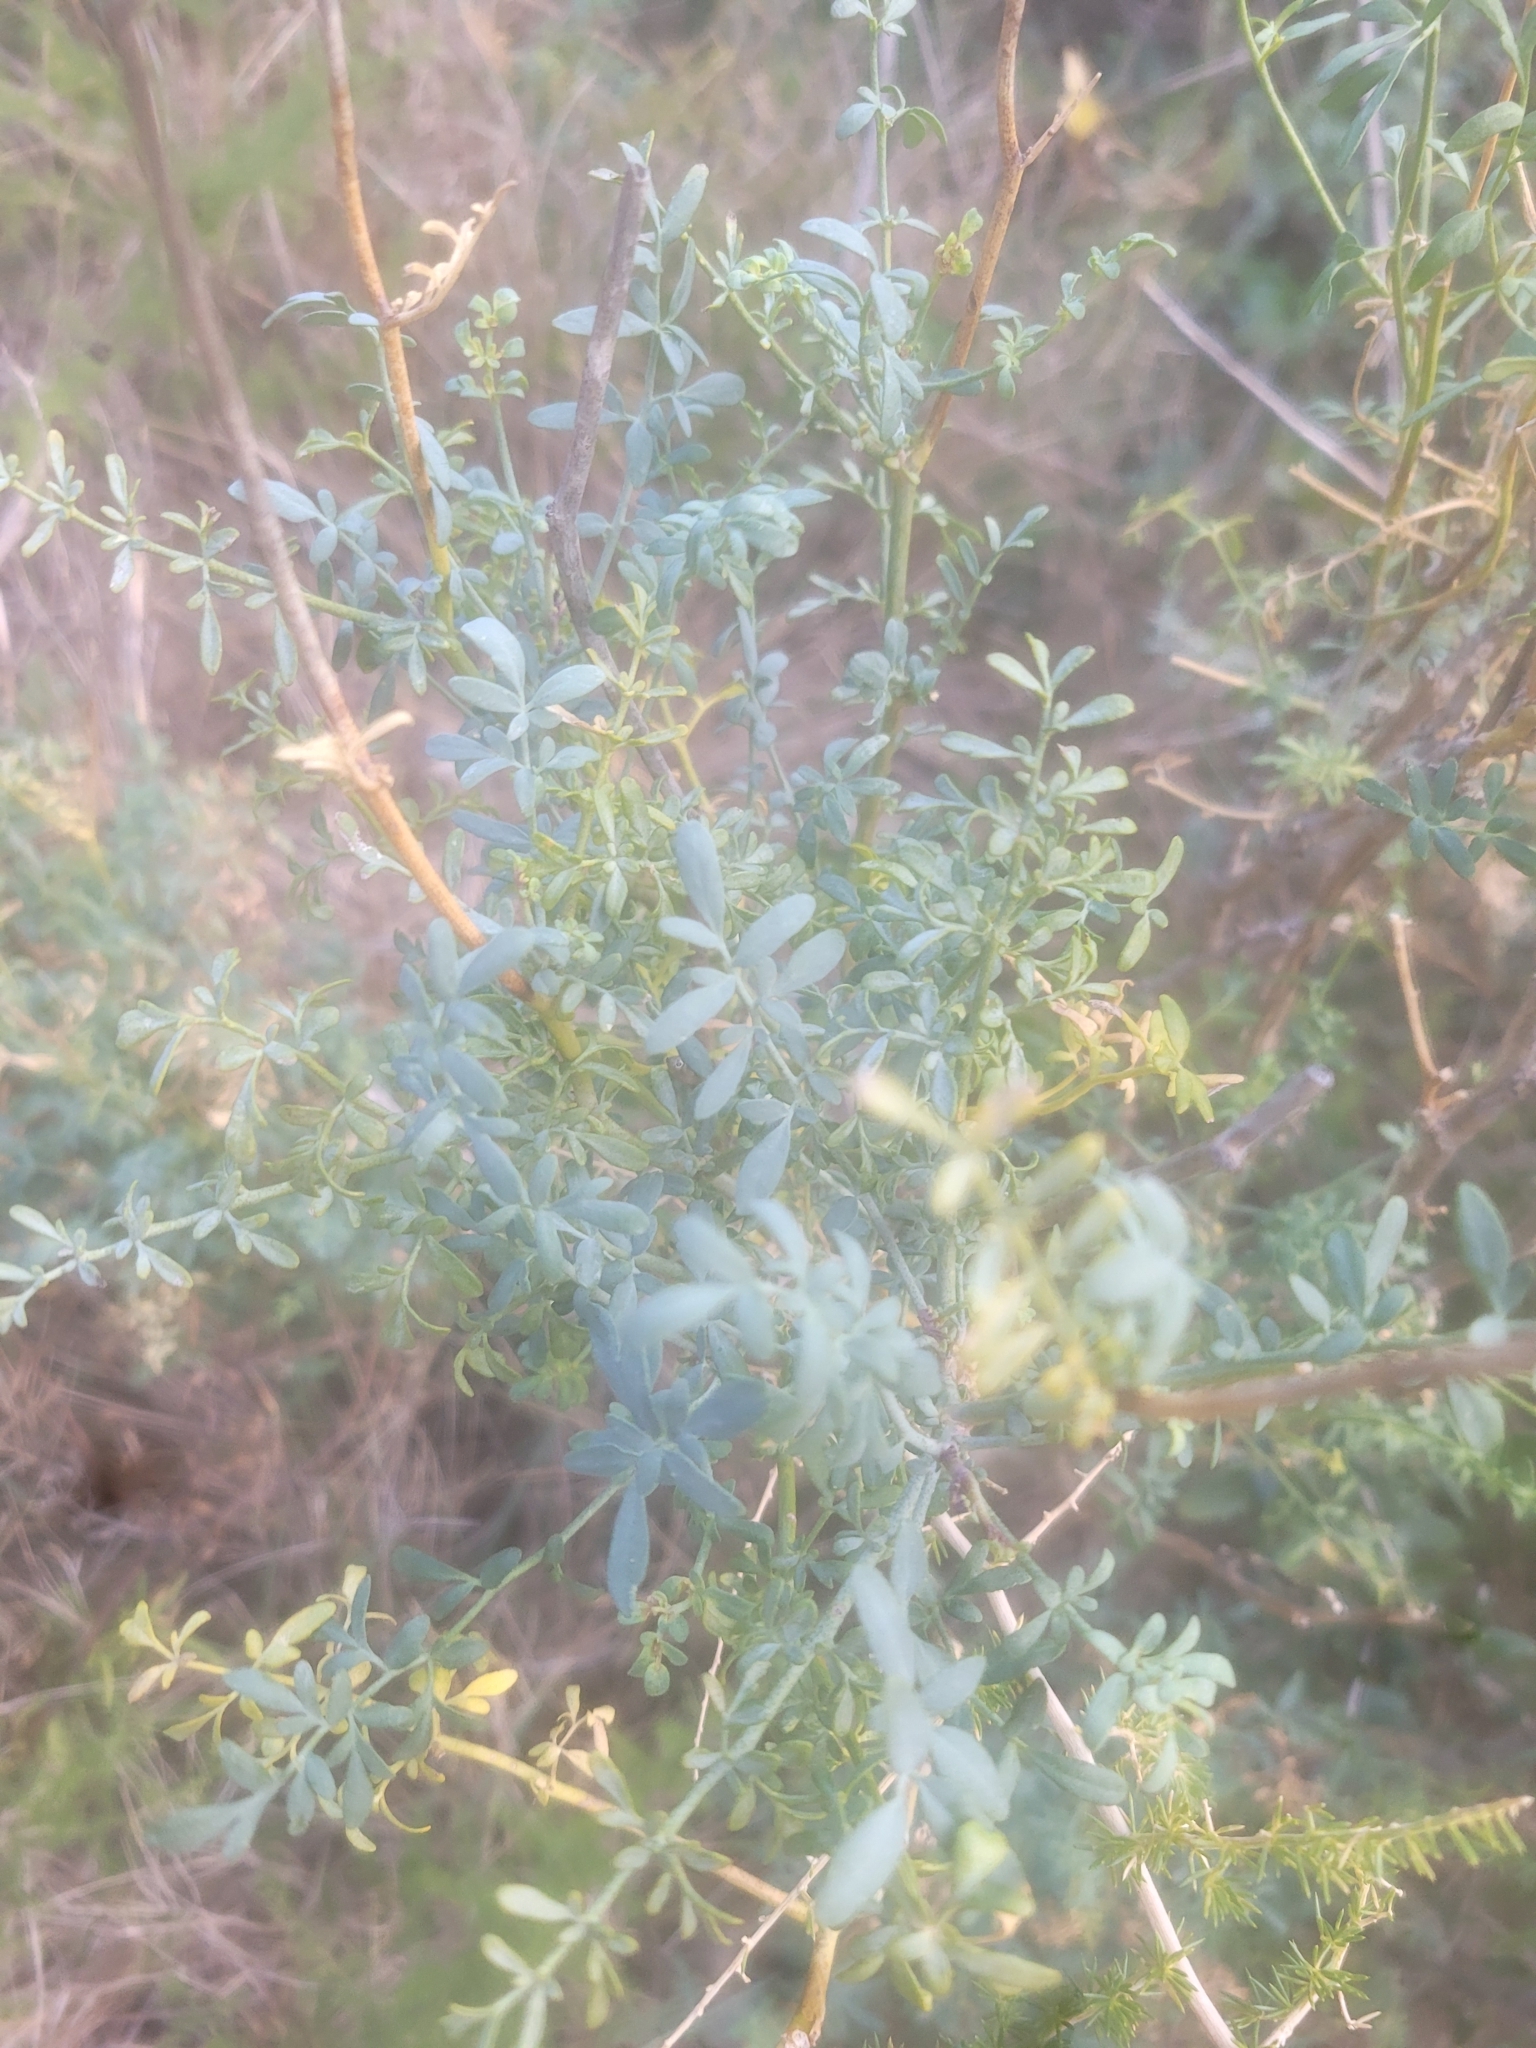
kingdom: Plantae
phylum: Tracheophyta
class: Magnoliopsida
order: Sapindales
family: Rutaceae
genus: Ruta
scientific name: Ruta angustifolia
